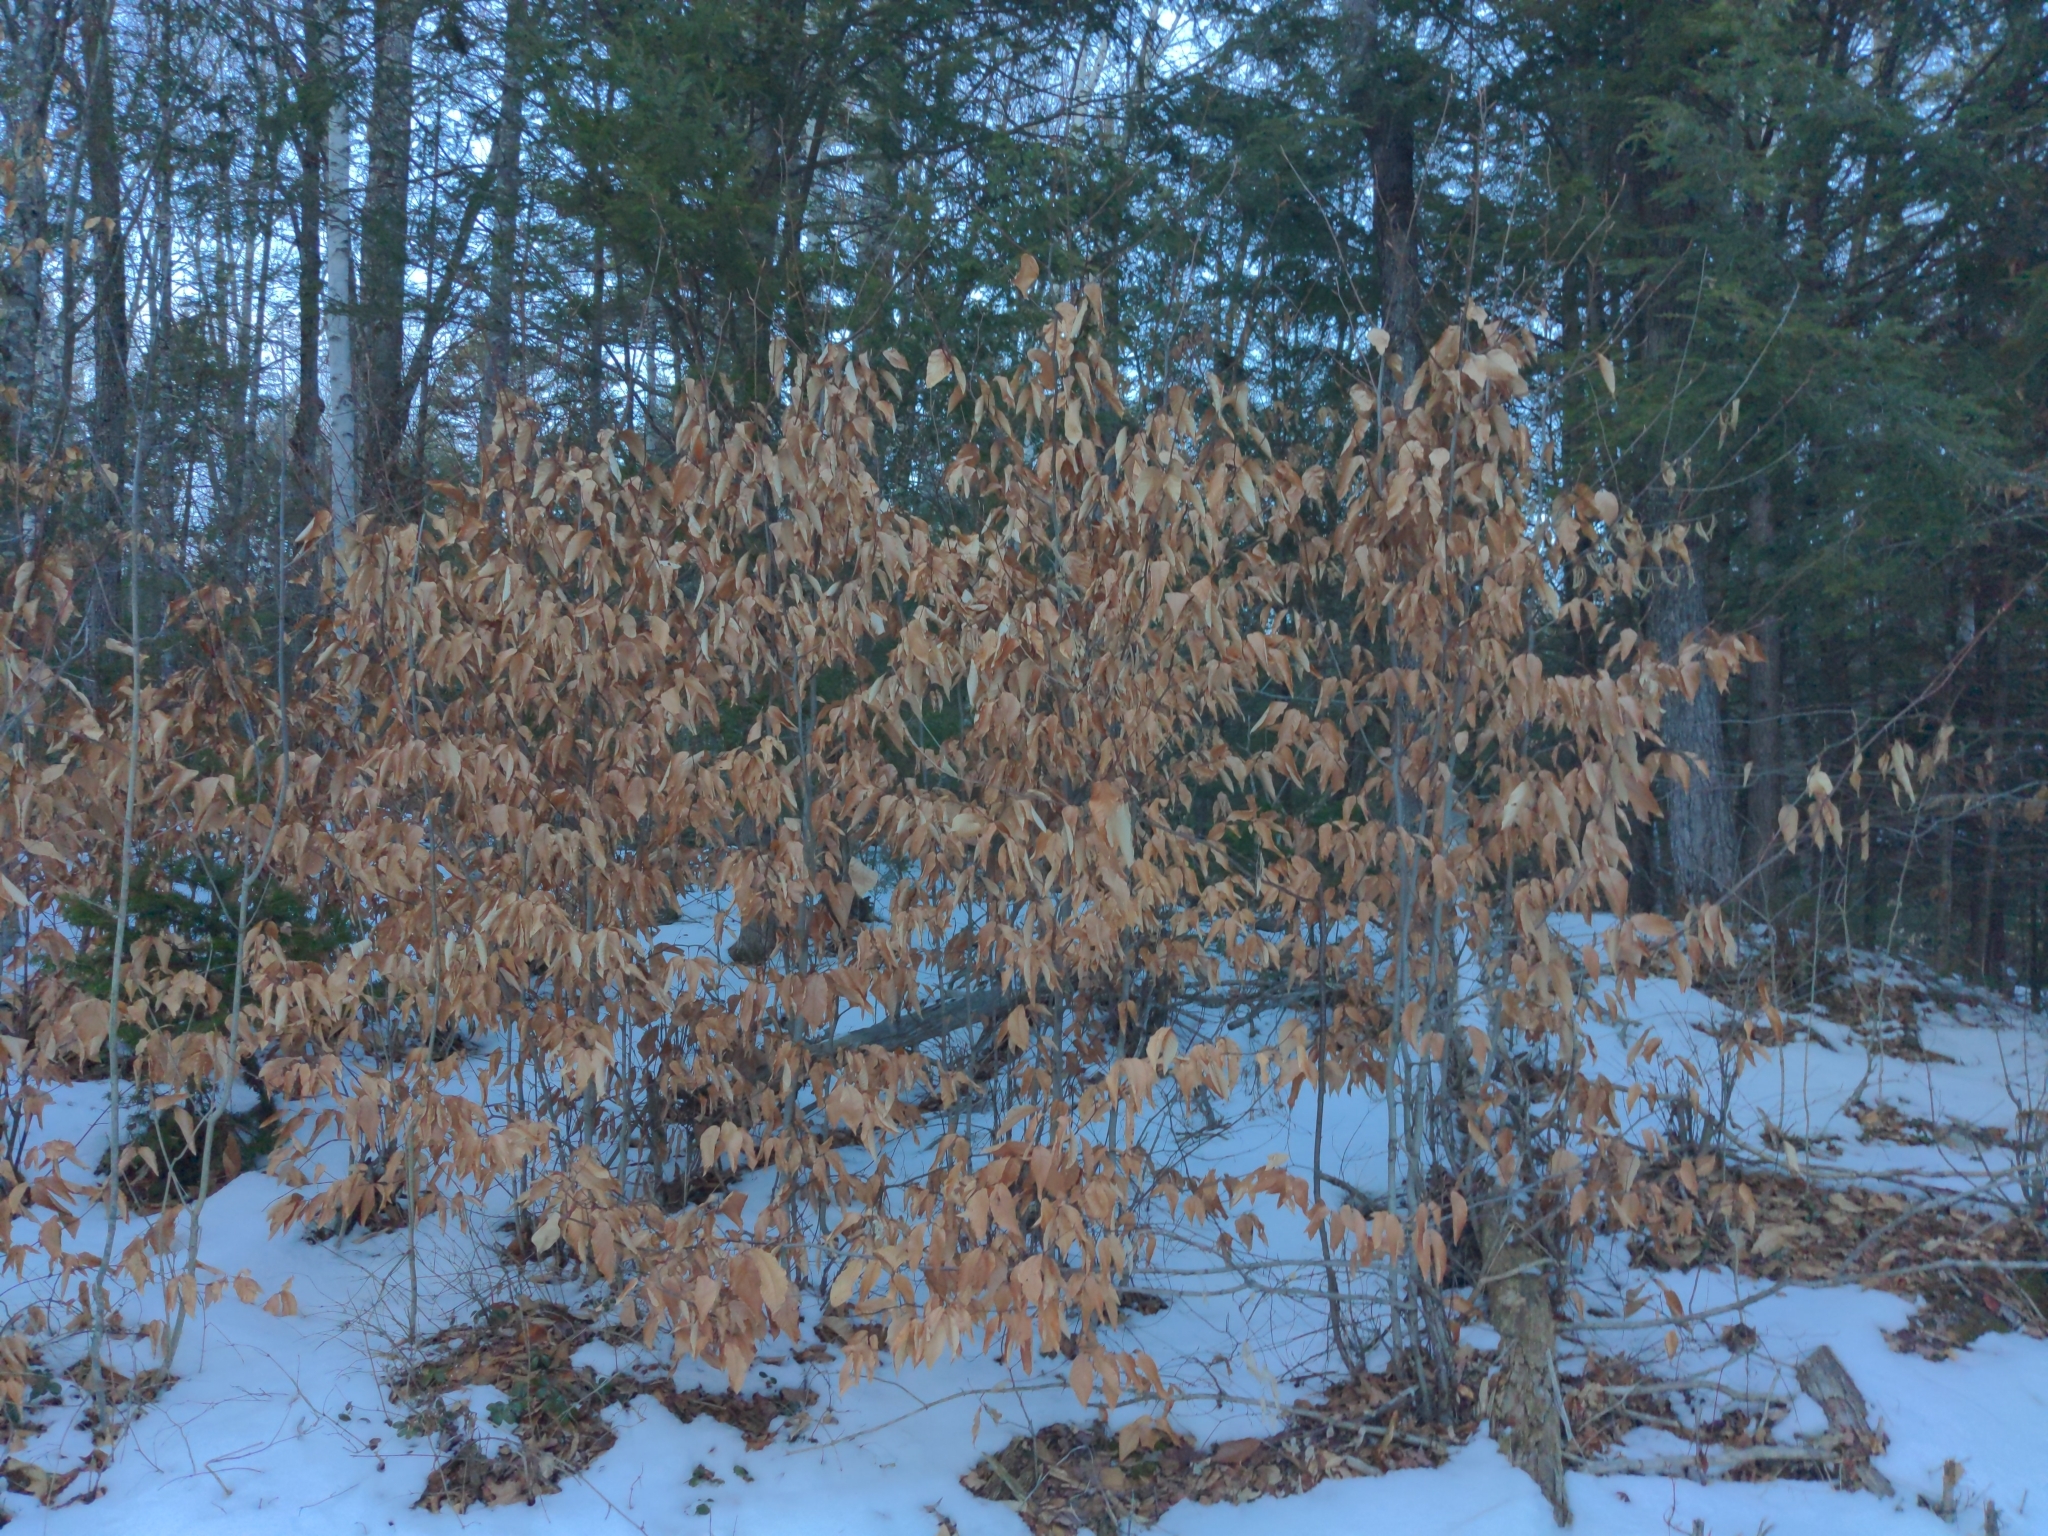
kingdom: Plantae
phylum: Tracheophyta
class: Magnoliopsida
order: Fagales
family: Fagaceae
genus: Fagus
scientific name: Fagus grandifolia
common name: American beech
